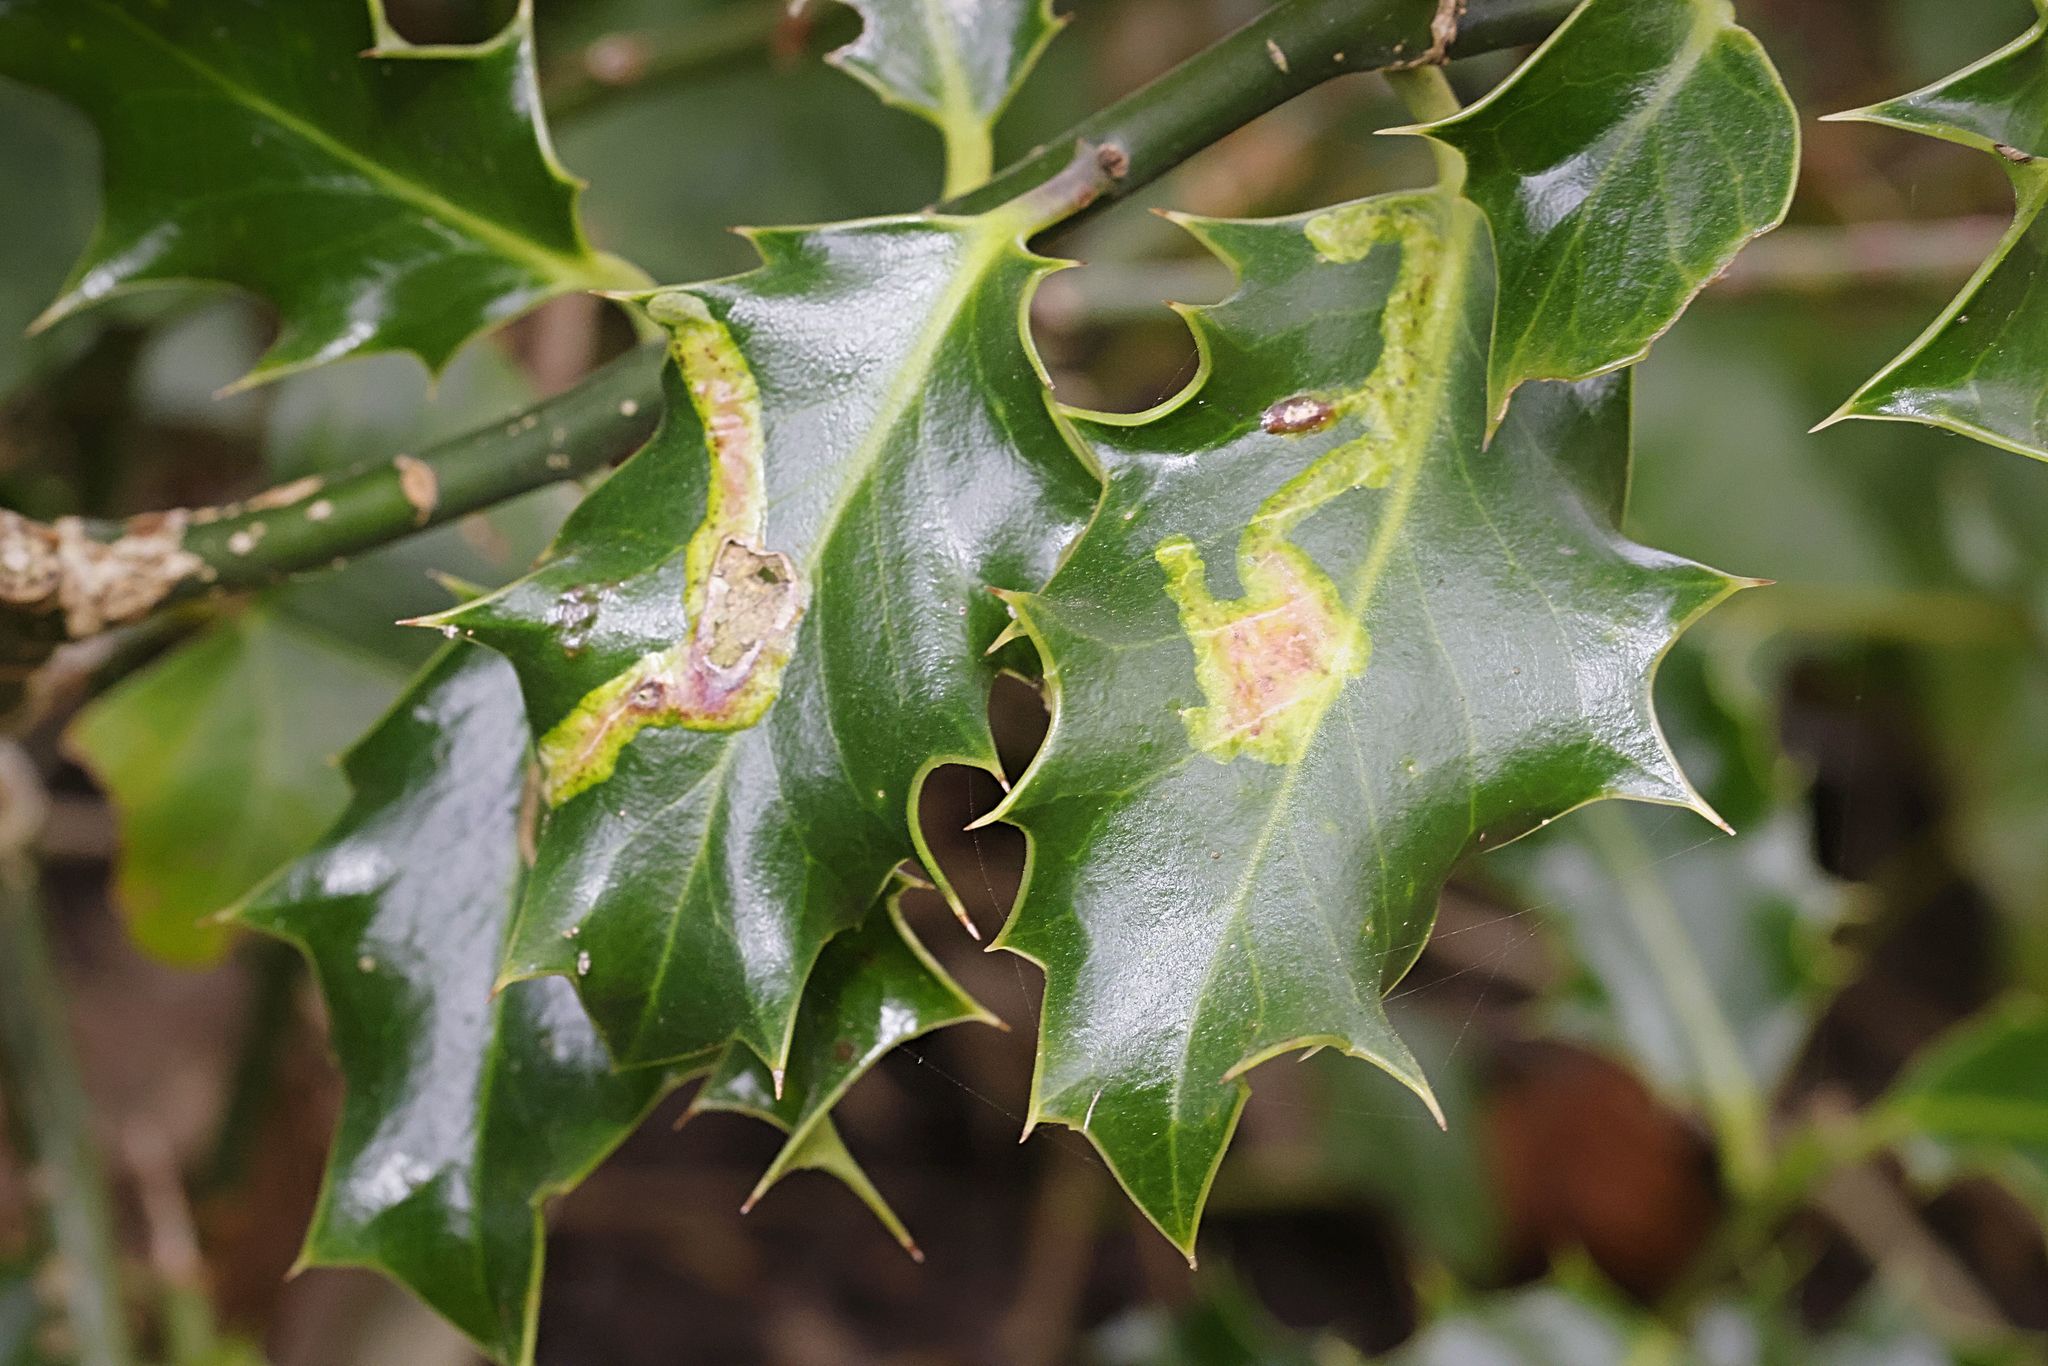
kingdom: Animalia
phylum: Arthropoda
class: Insecta
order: Diptera
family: Agromyzidae
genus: Phytomyza
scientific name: Phytomyza ilicis
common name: Holly leafminer
